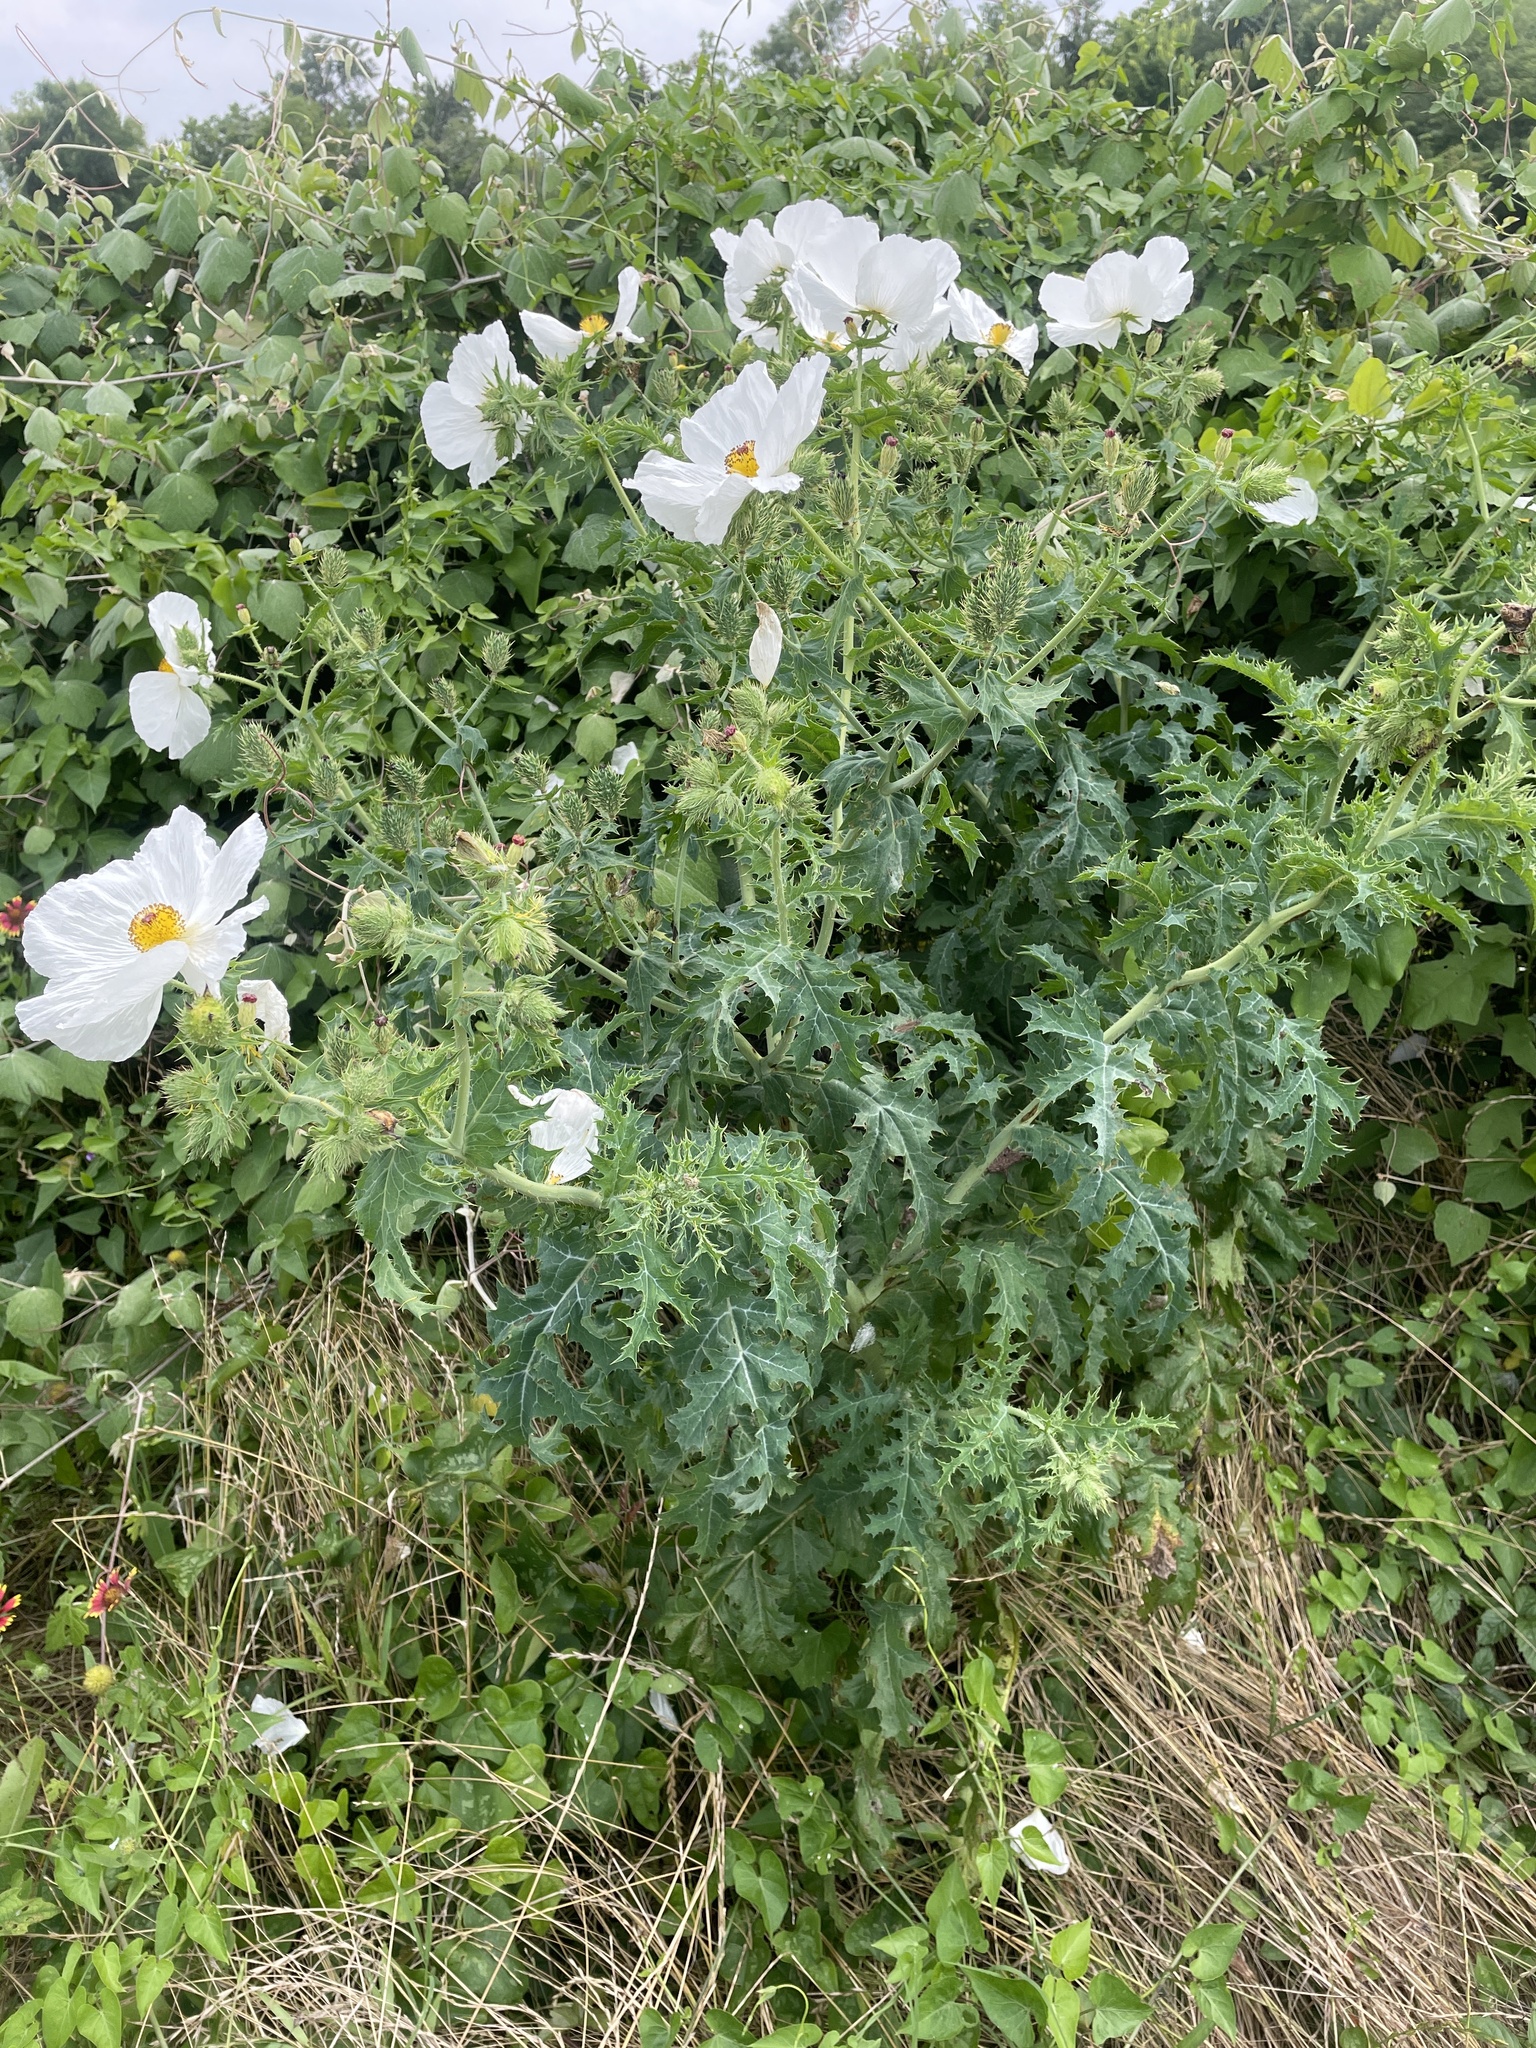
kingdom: Plantae
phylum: Tracheophyta
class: Magnoliopsida
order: Ranunculales
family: Papaveraceae
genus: Argemone
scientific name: Argemone albiflora
